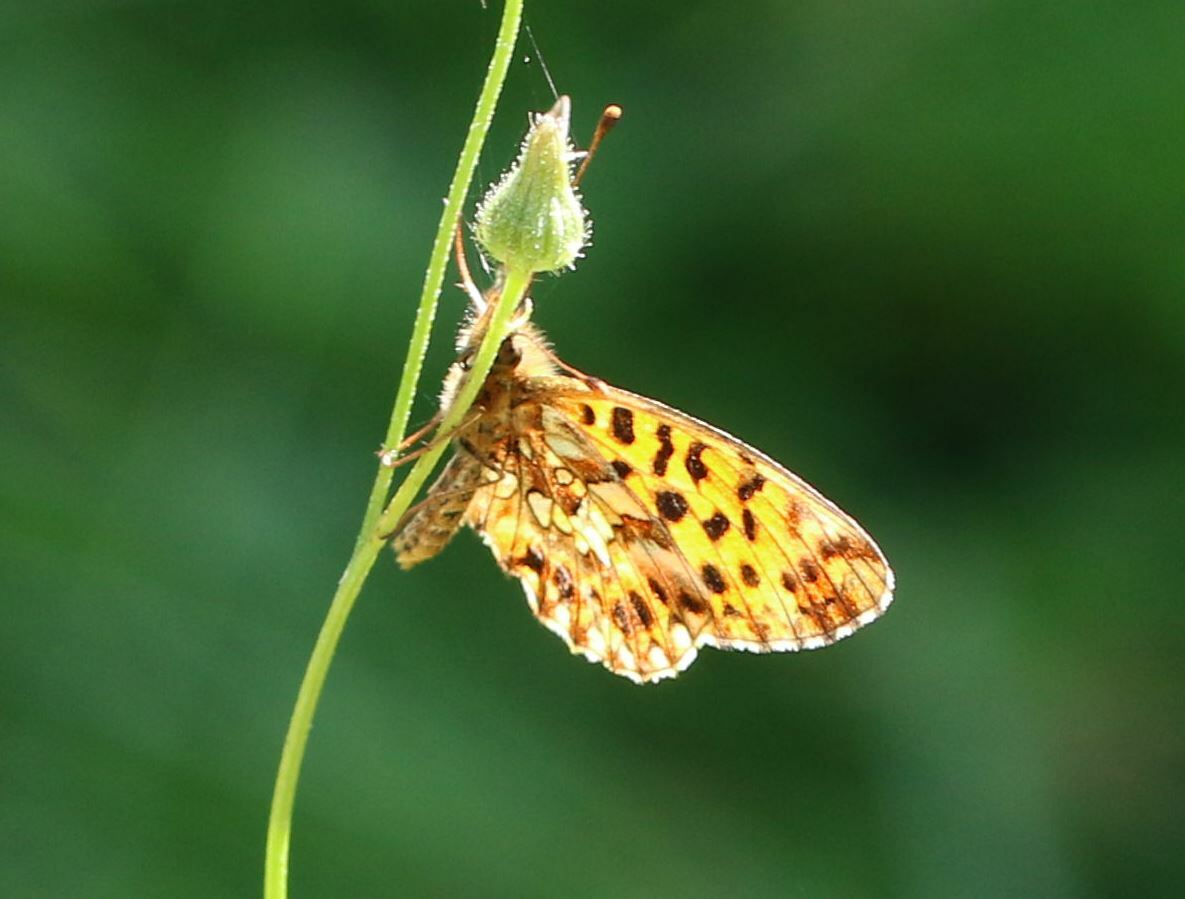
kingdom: Animalia
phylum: Arthropoda
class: Insecta
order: Lepidoptera
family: Nymphalidae
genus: Boloria
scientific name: Boloria dia
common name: Weaver's fritillary
